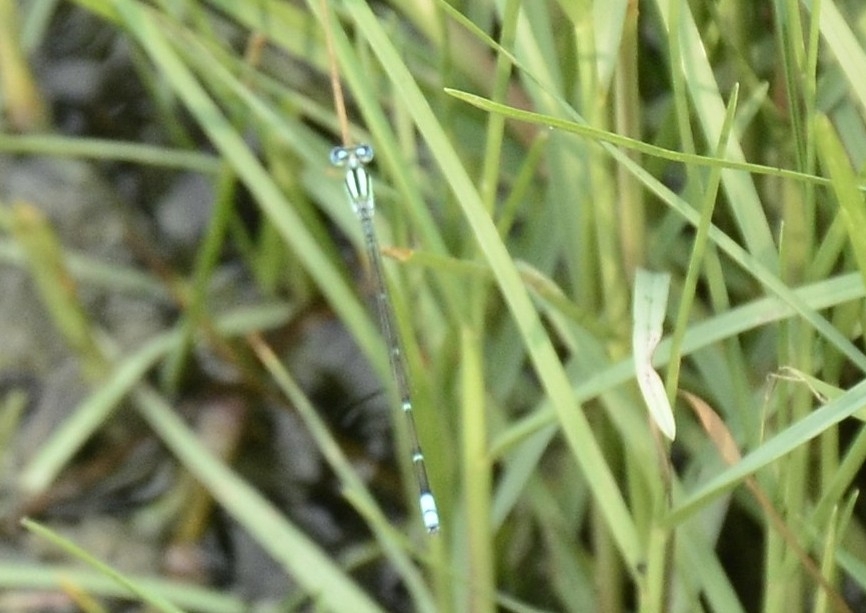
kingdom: Animalia
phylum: Arthropoda
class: Insecta
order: Odonata
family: Coenagrionidae
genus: Pseudagrion
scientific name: Pseudagrion microcephalum
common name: Blue riverdamsel
